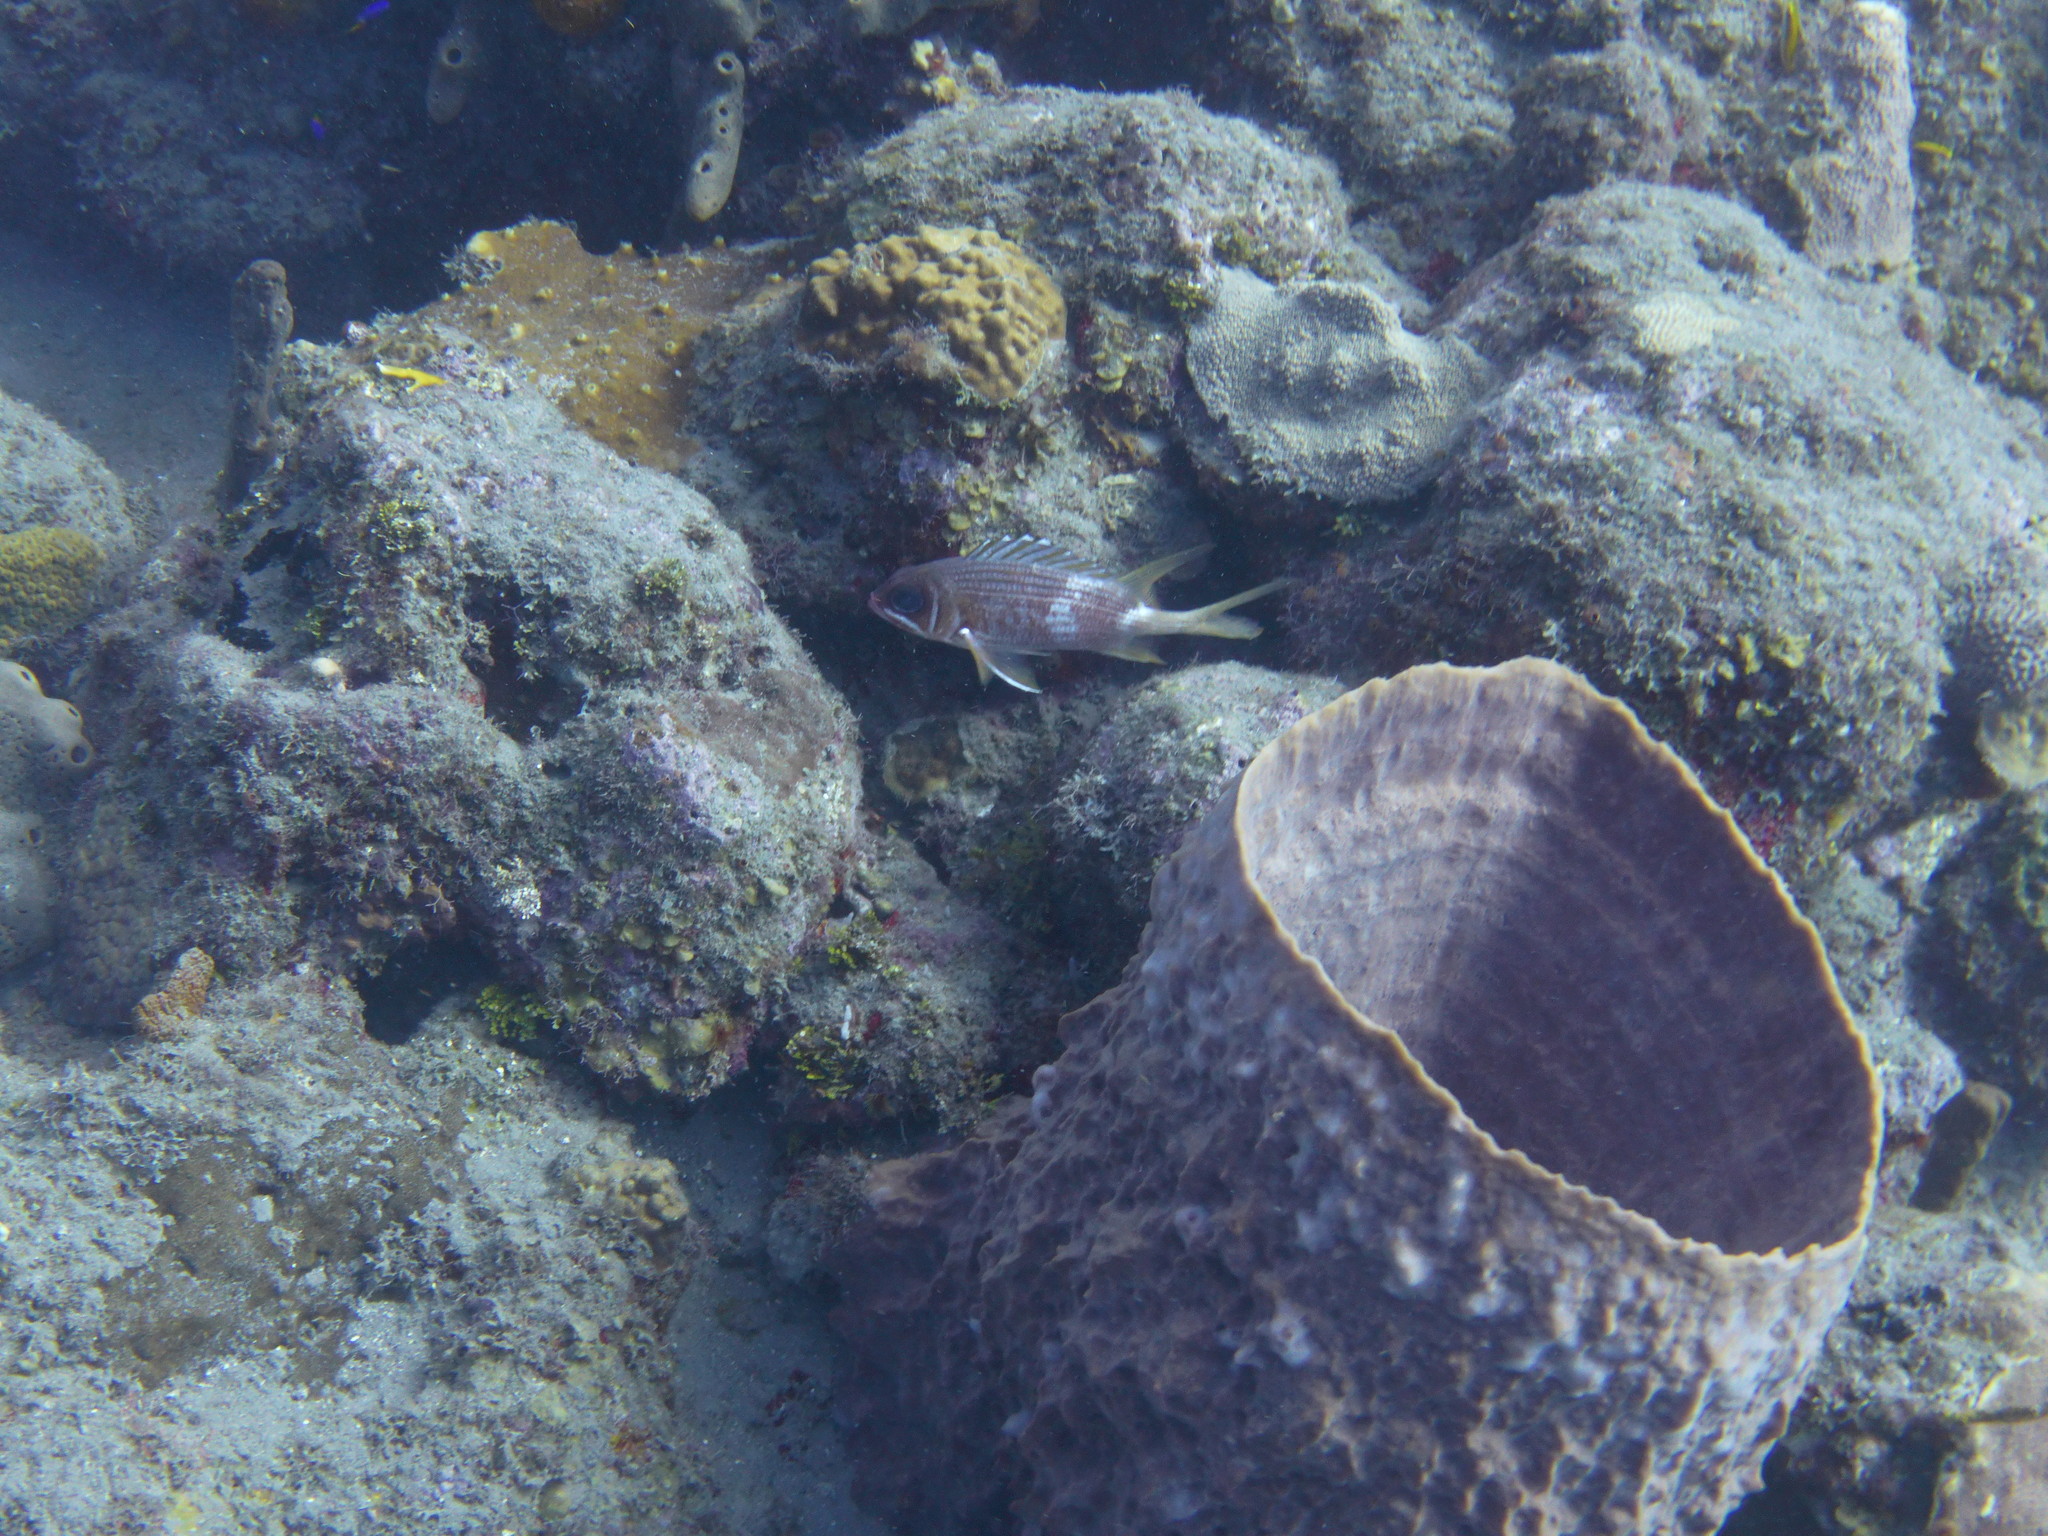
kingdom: Animalia
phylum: Chordata
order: Beryciformes
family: Holocentridae
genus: Holocentrus
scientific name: Holocentrus rufus
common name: Longspine squirrelfish
